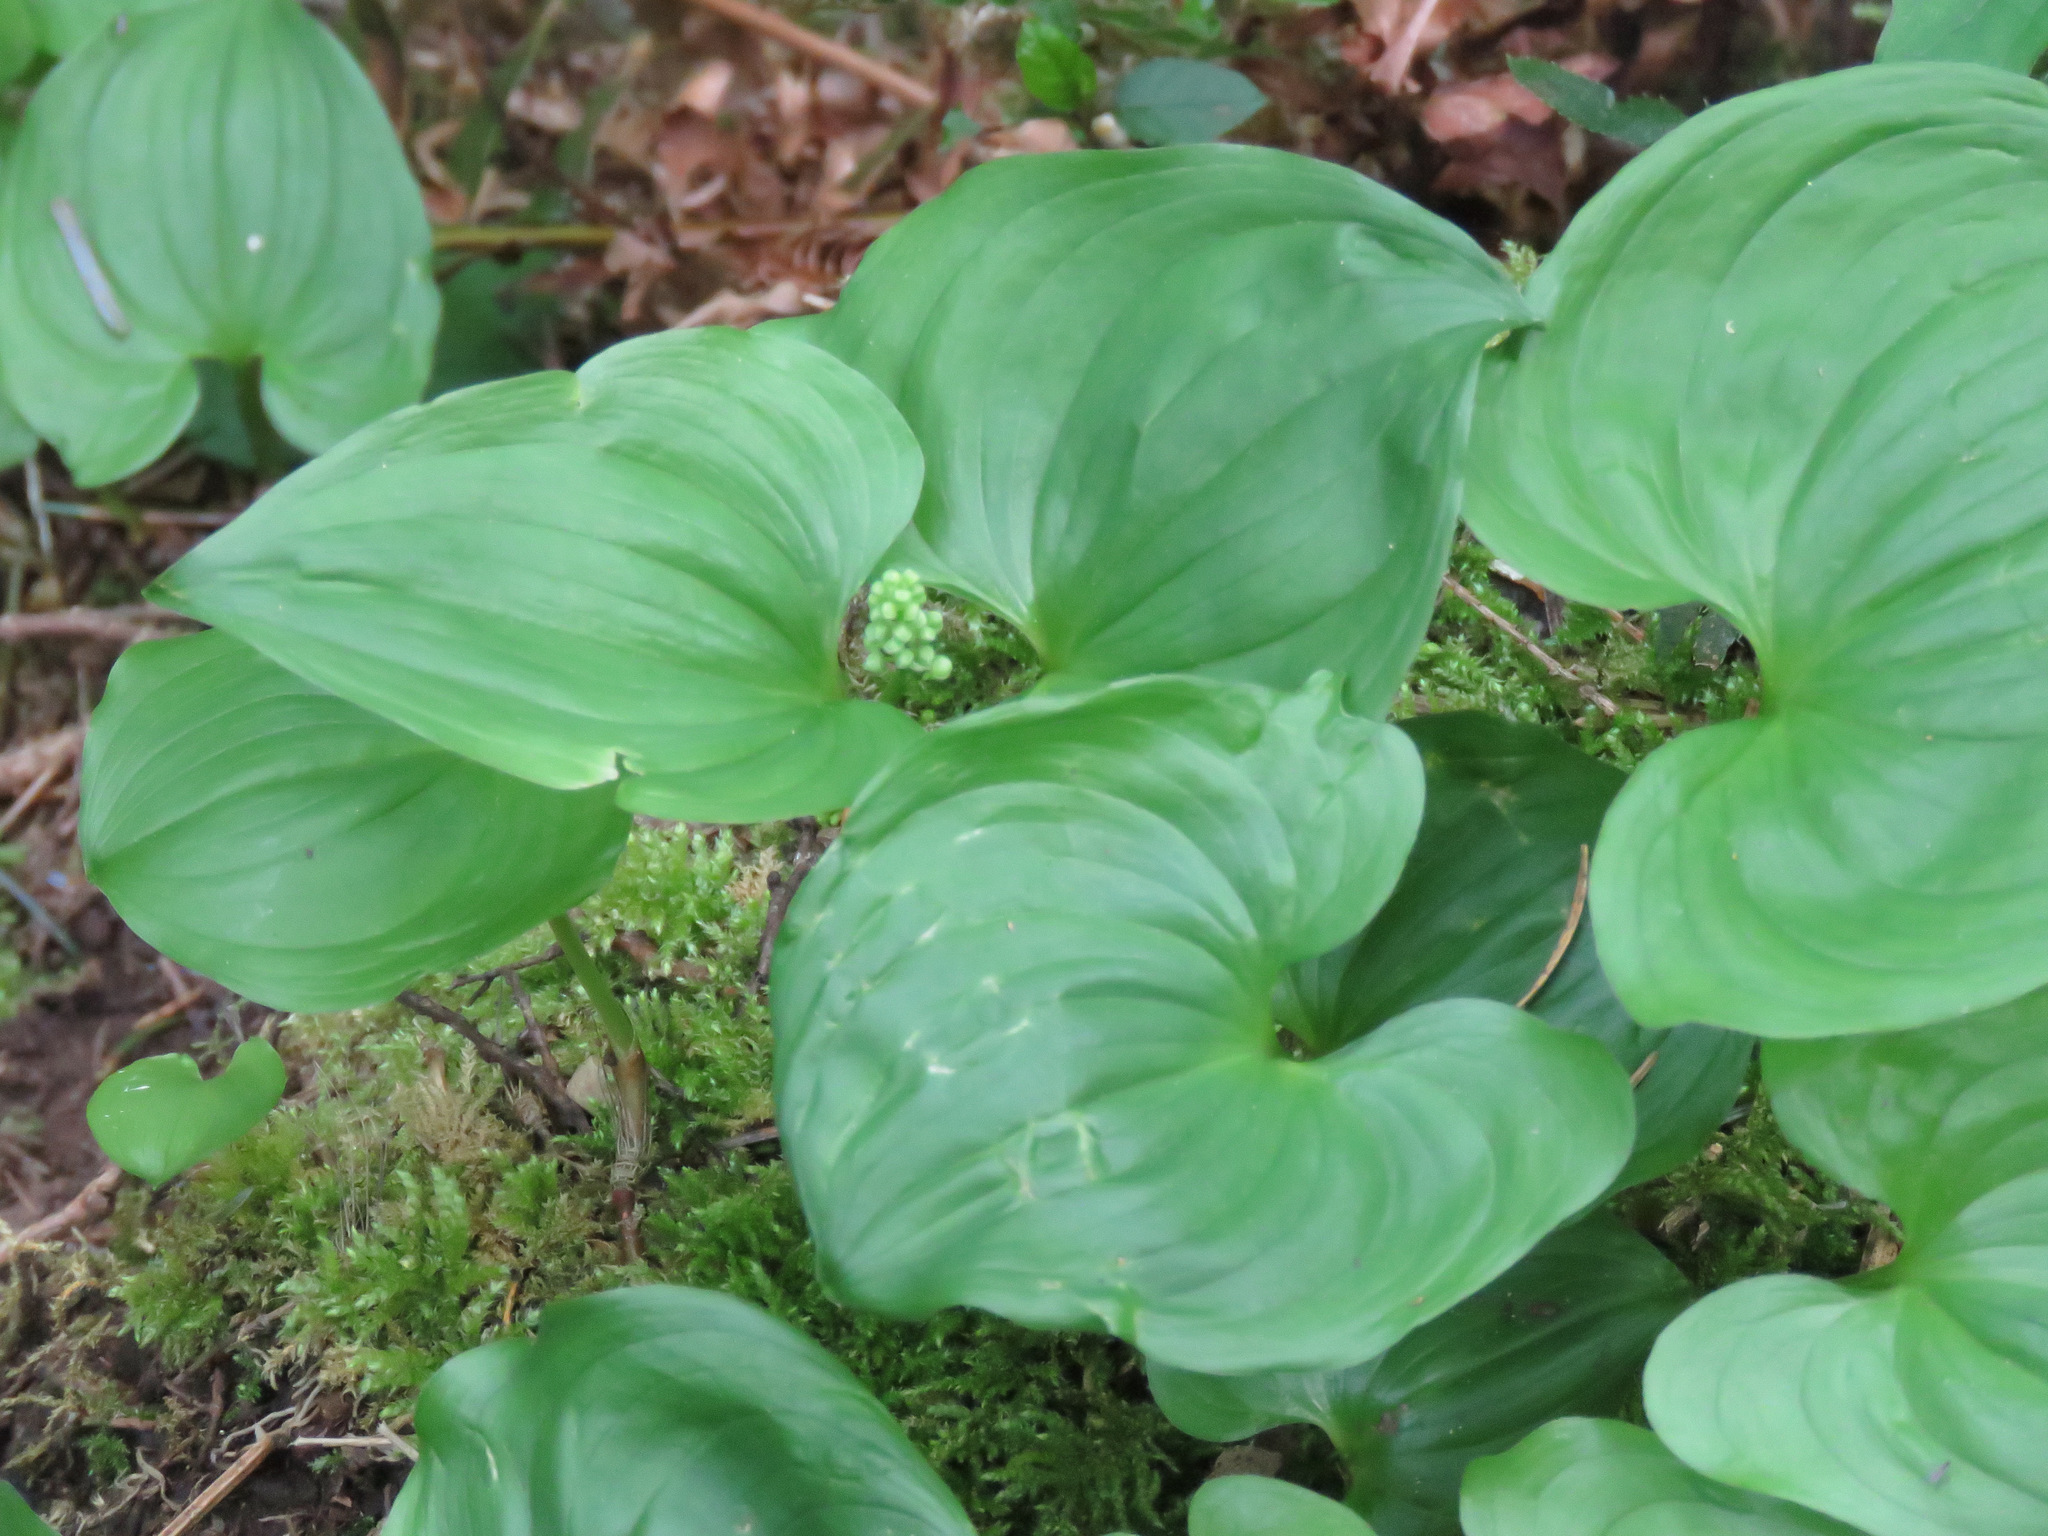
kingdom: Plantae
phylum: Tracheophyta
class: Liliopsida
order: Asparagales
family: Asparagaceae
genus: Maianthemum
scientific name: Maianthemum dilatatum
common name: False lily-of-the-valley
